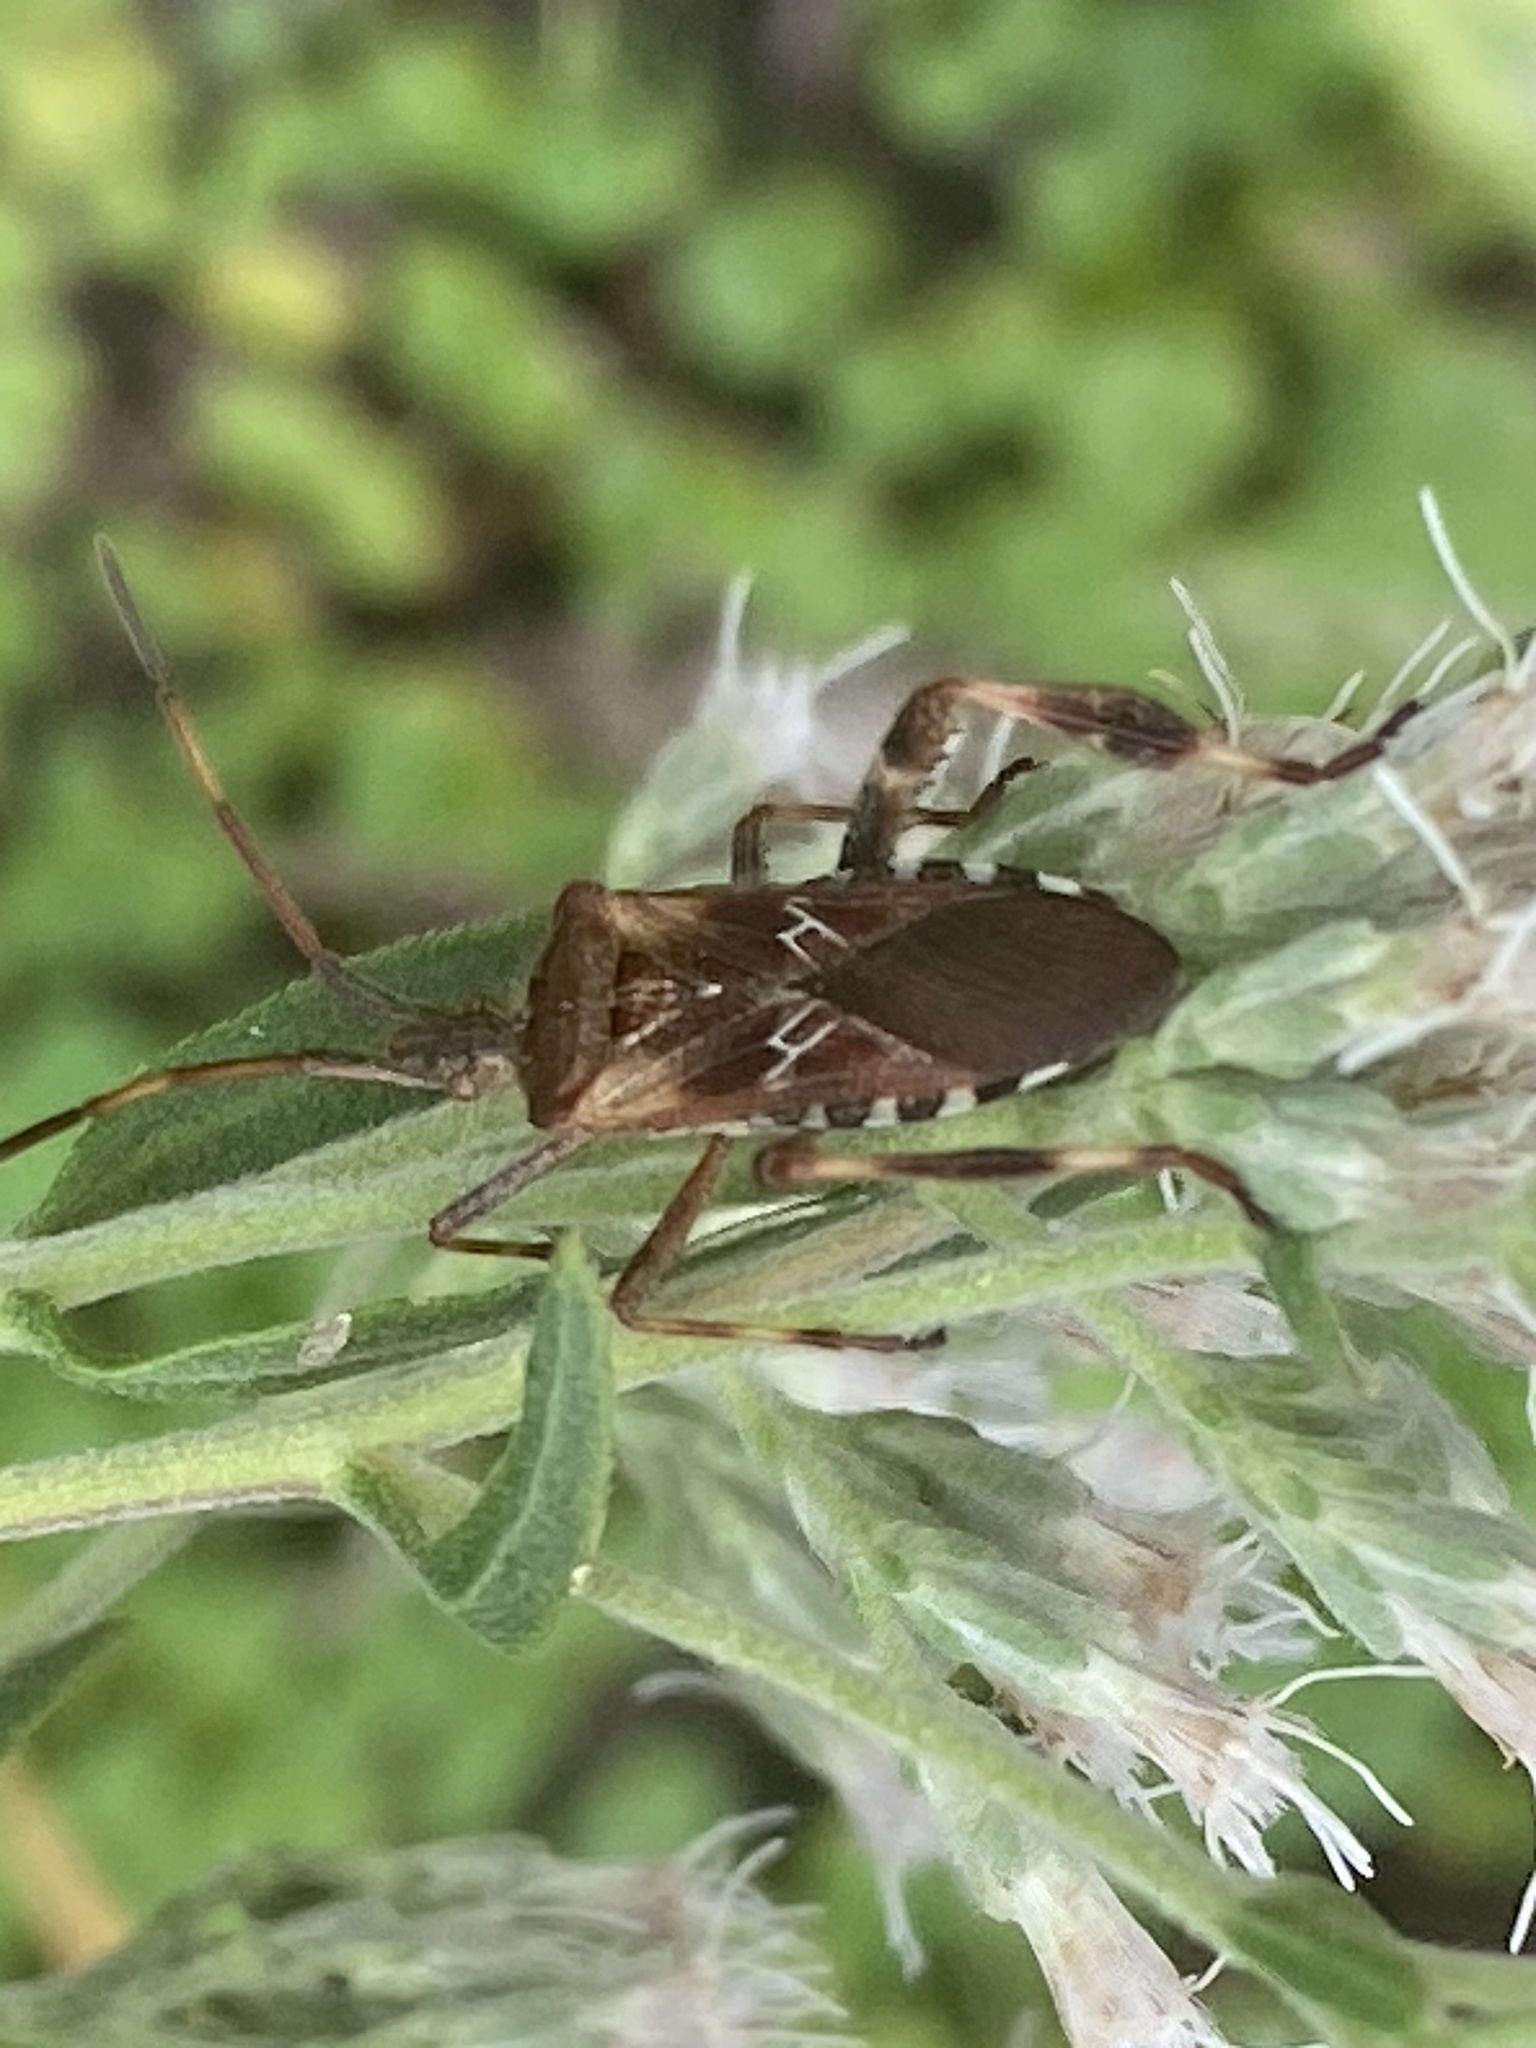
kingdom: Animalia
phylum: Arthropoda
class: Insecta
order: Hemiptera
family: Coreidae
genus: Leptoglossus
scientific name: Leptoglossus occidentalis
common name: Western conifer-seed bug
